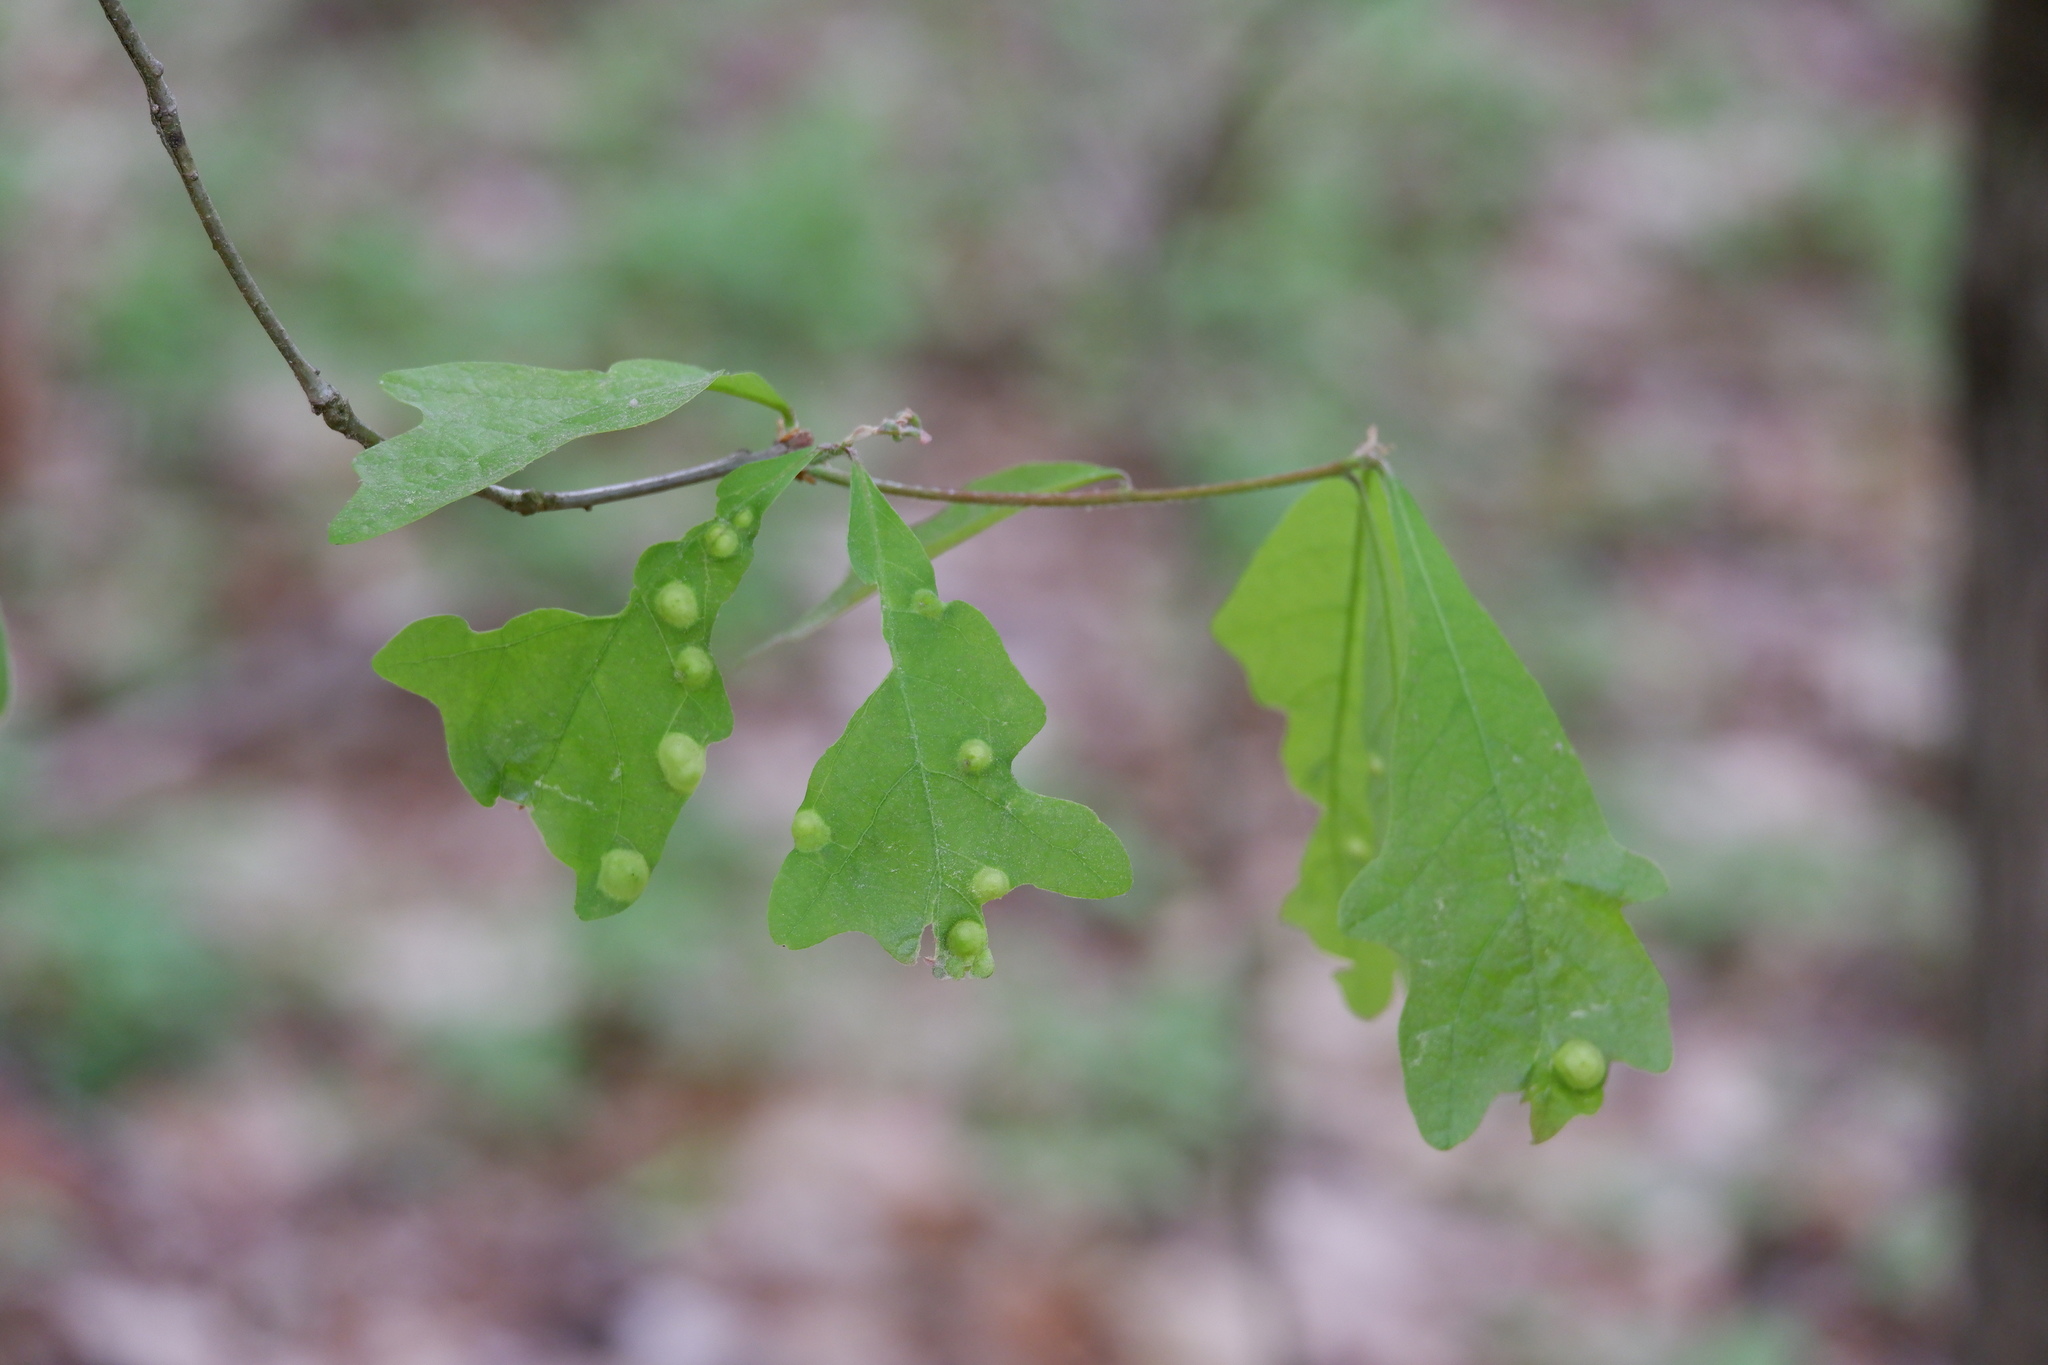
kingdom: Animalia
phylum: Arthropoda
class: Insecta
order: Hymenoptera
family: Cynipidae
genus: Callirhytis
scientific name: Callirhytis
